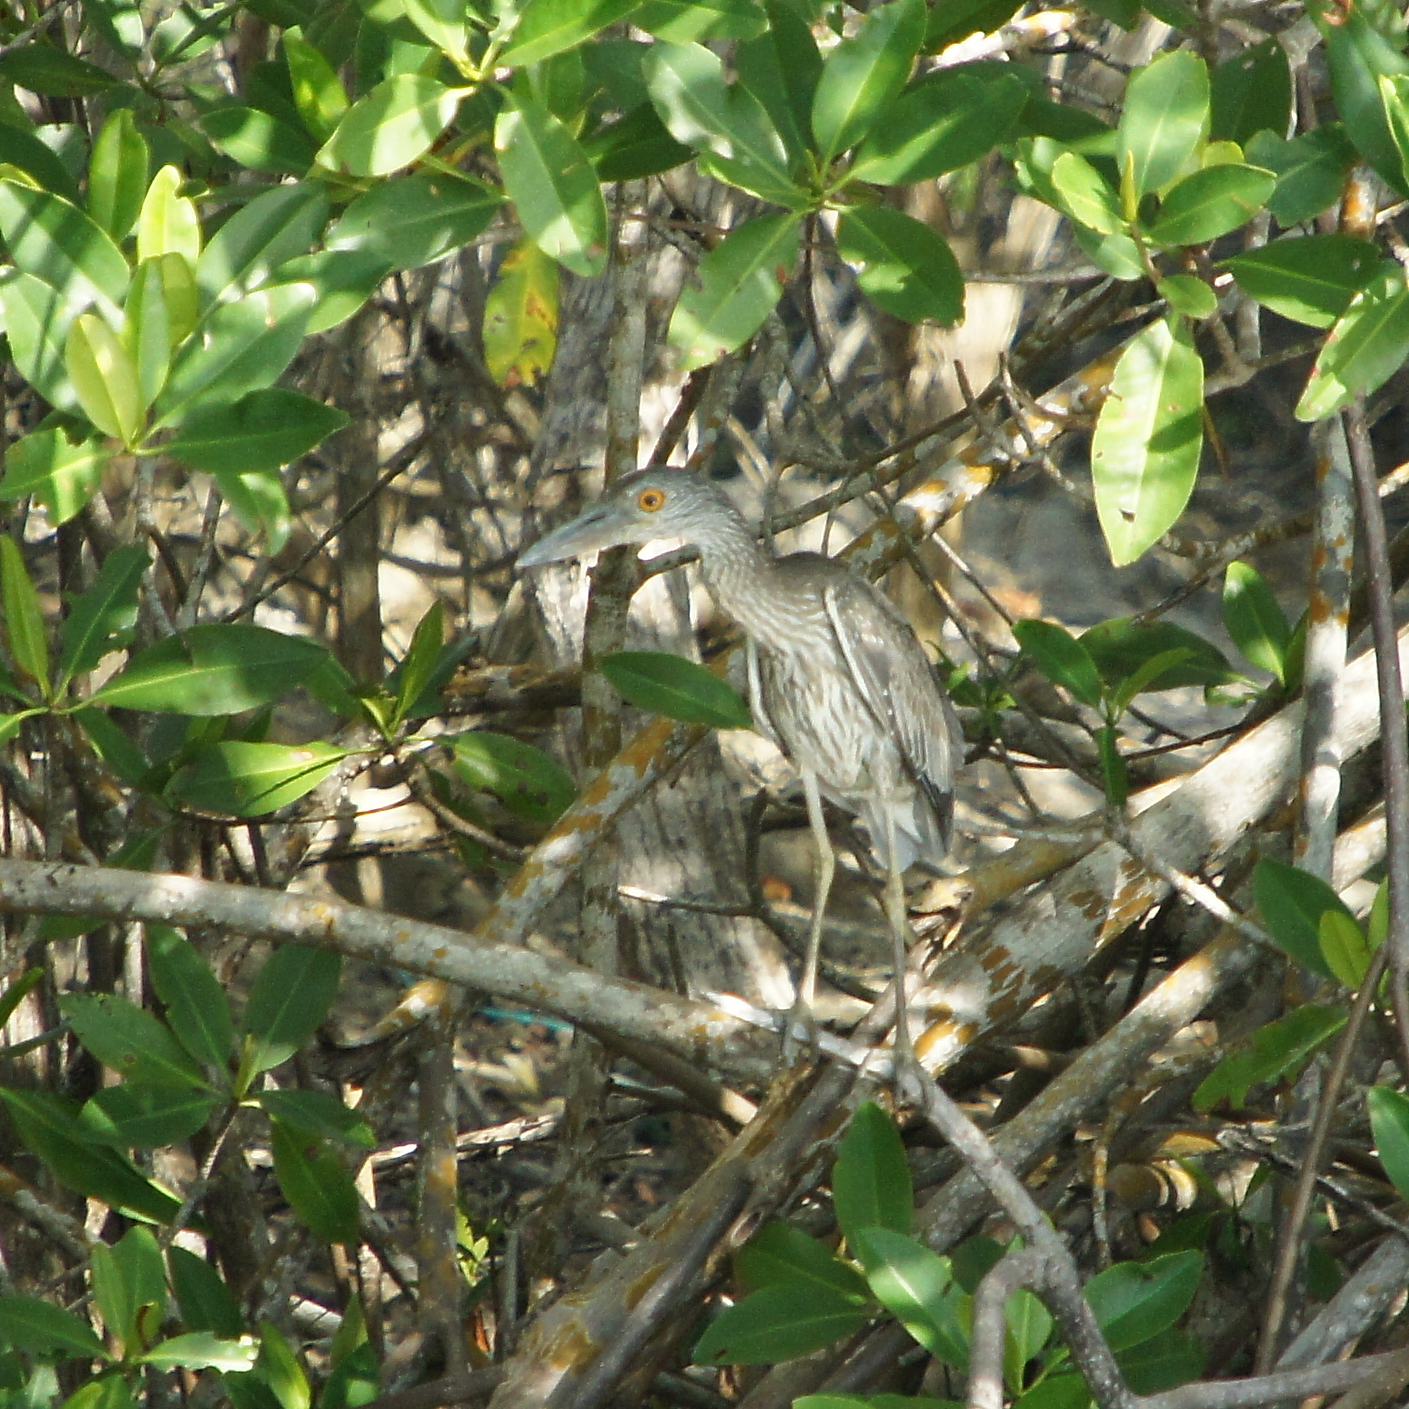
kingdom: Animalia
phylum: Chordata
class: Aves
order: Pelecaniformes
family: Ardeidae
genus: Nyctanassa
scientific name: Nyctanassa violacea
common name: Yellow-crowned night heron
